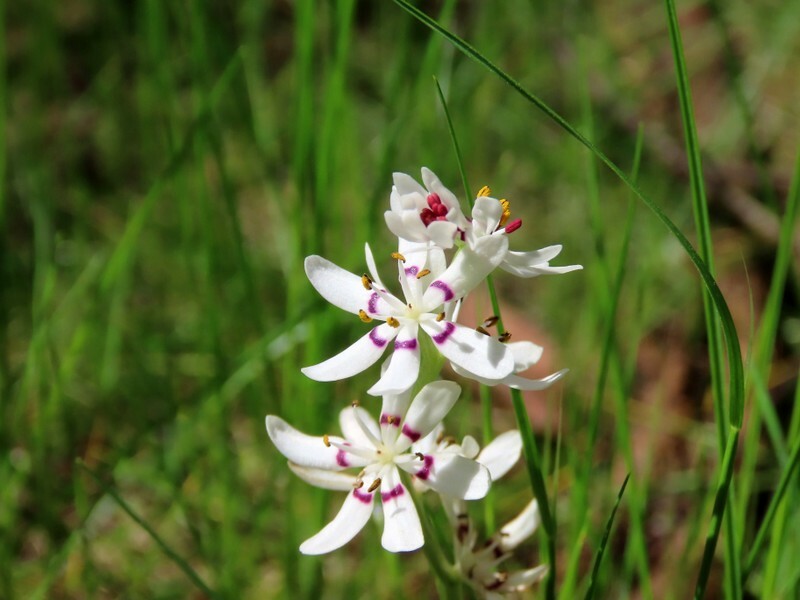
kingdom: Plantae
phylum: Tracheophyta
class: Liliopsida
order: Liliales
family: Colchicaceae
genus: Wurmbea
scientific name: Wurmbea dioica
